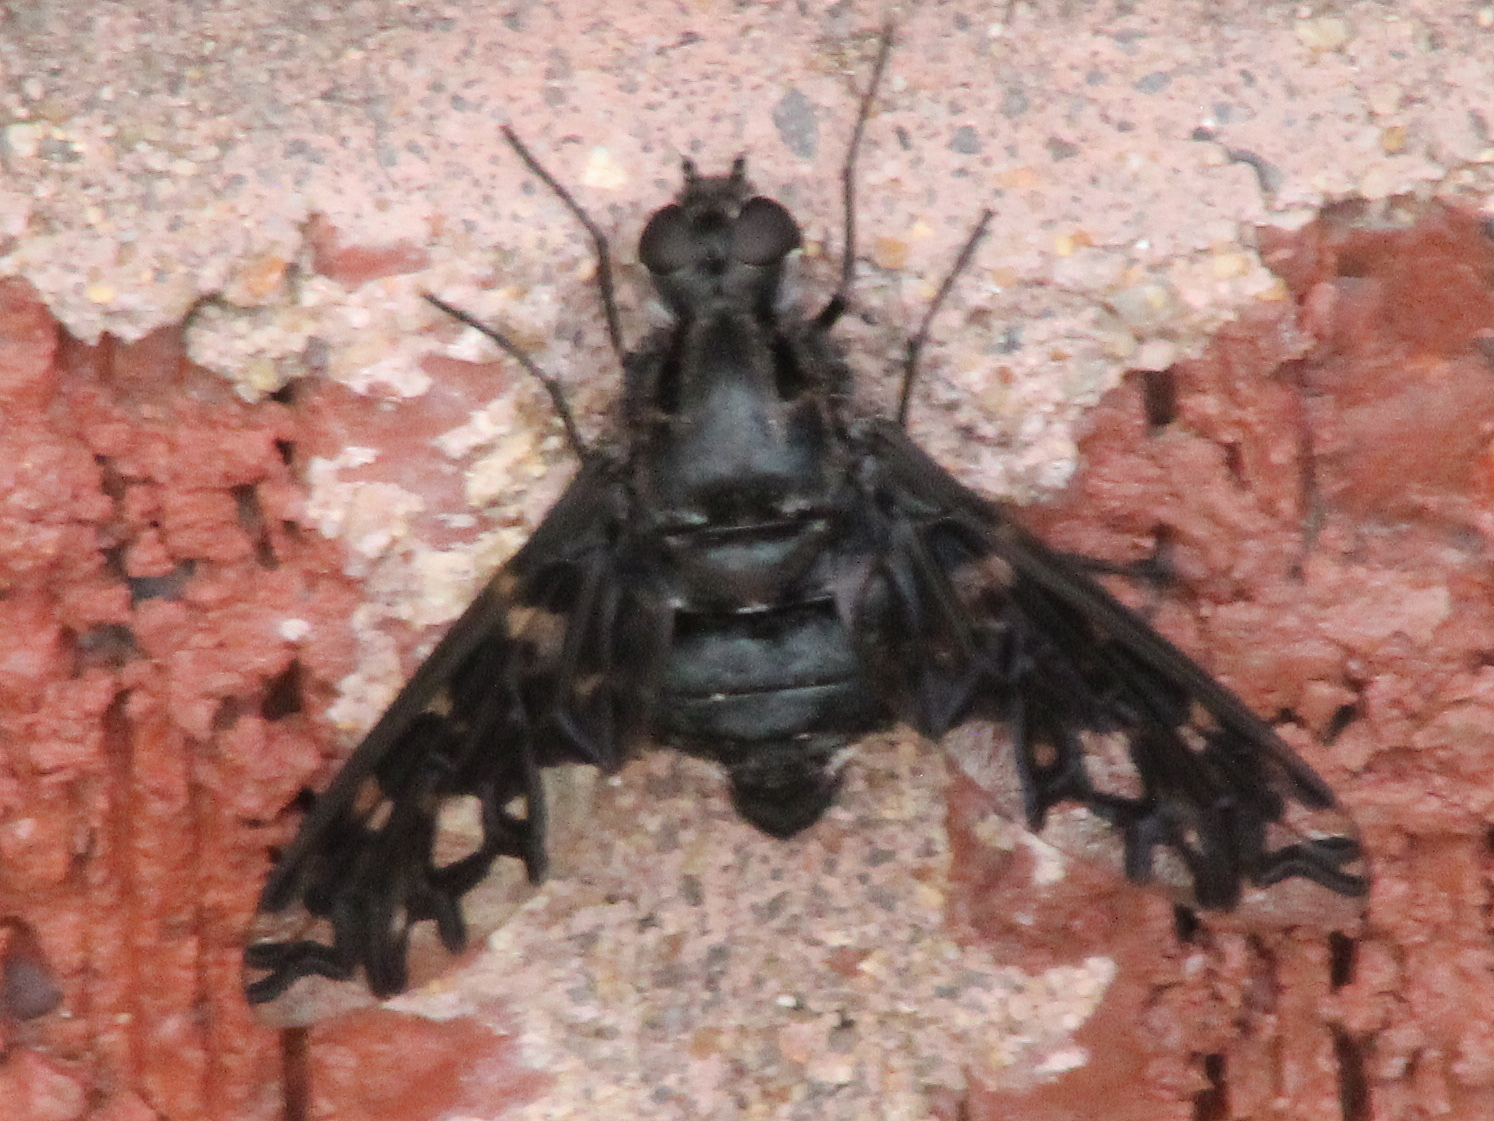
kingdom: Animalia
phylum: Arthropoda
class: Insecta
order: Diptera
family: Bombyliidae
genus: Xenox
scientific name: Xenox tigrinus
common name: Tiger bee fly
